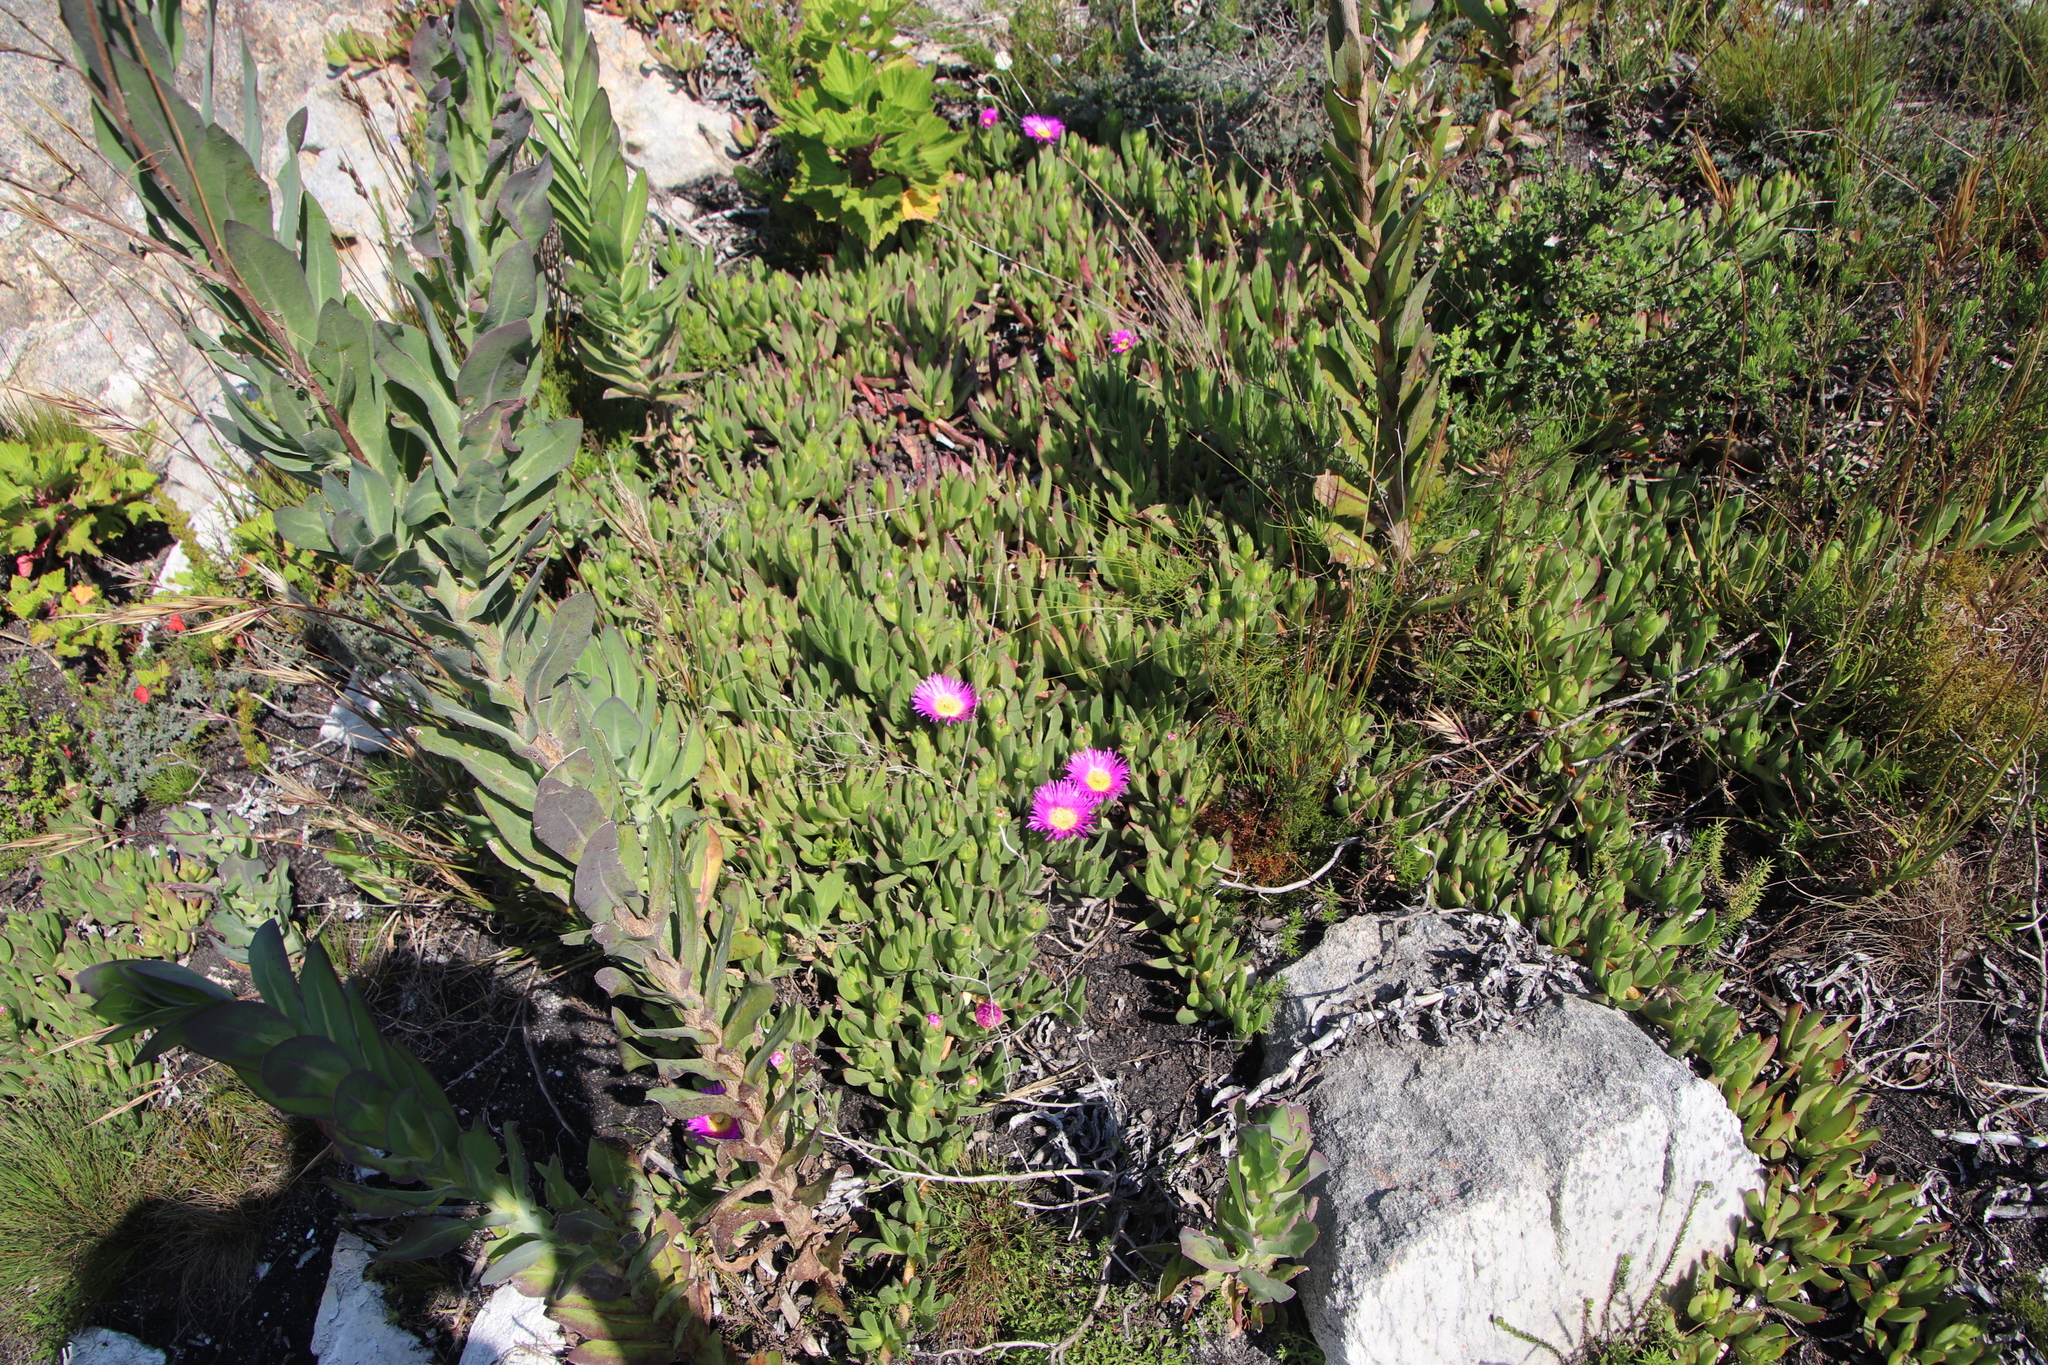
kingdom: Plantae
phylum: Tracheophyta
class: Magnoliopsida
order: Asterales
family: Asteraceae
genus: Othonna
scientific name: Othonna quinquedentata
